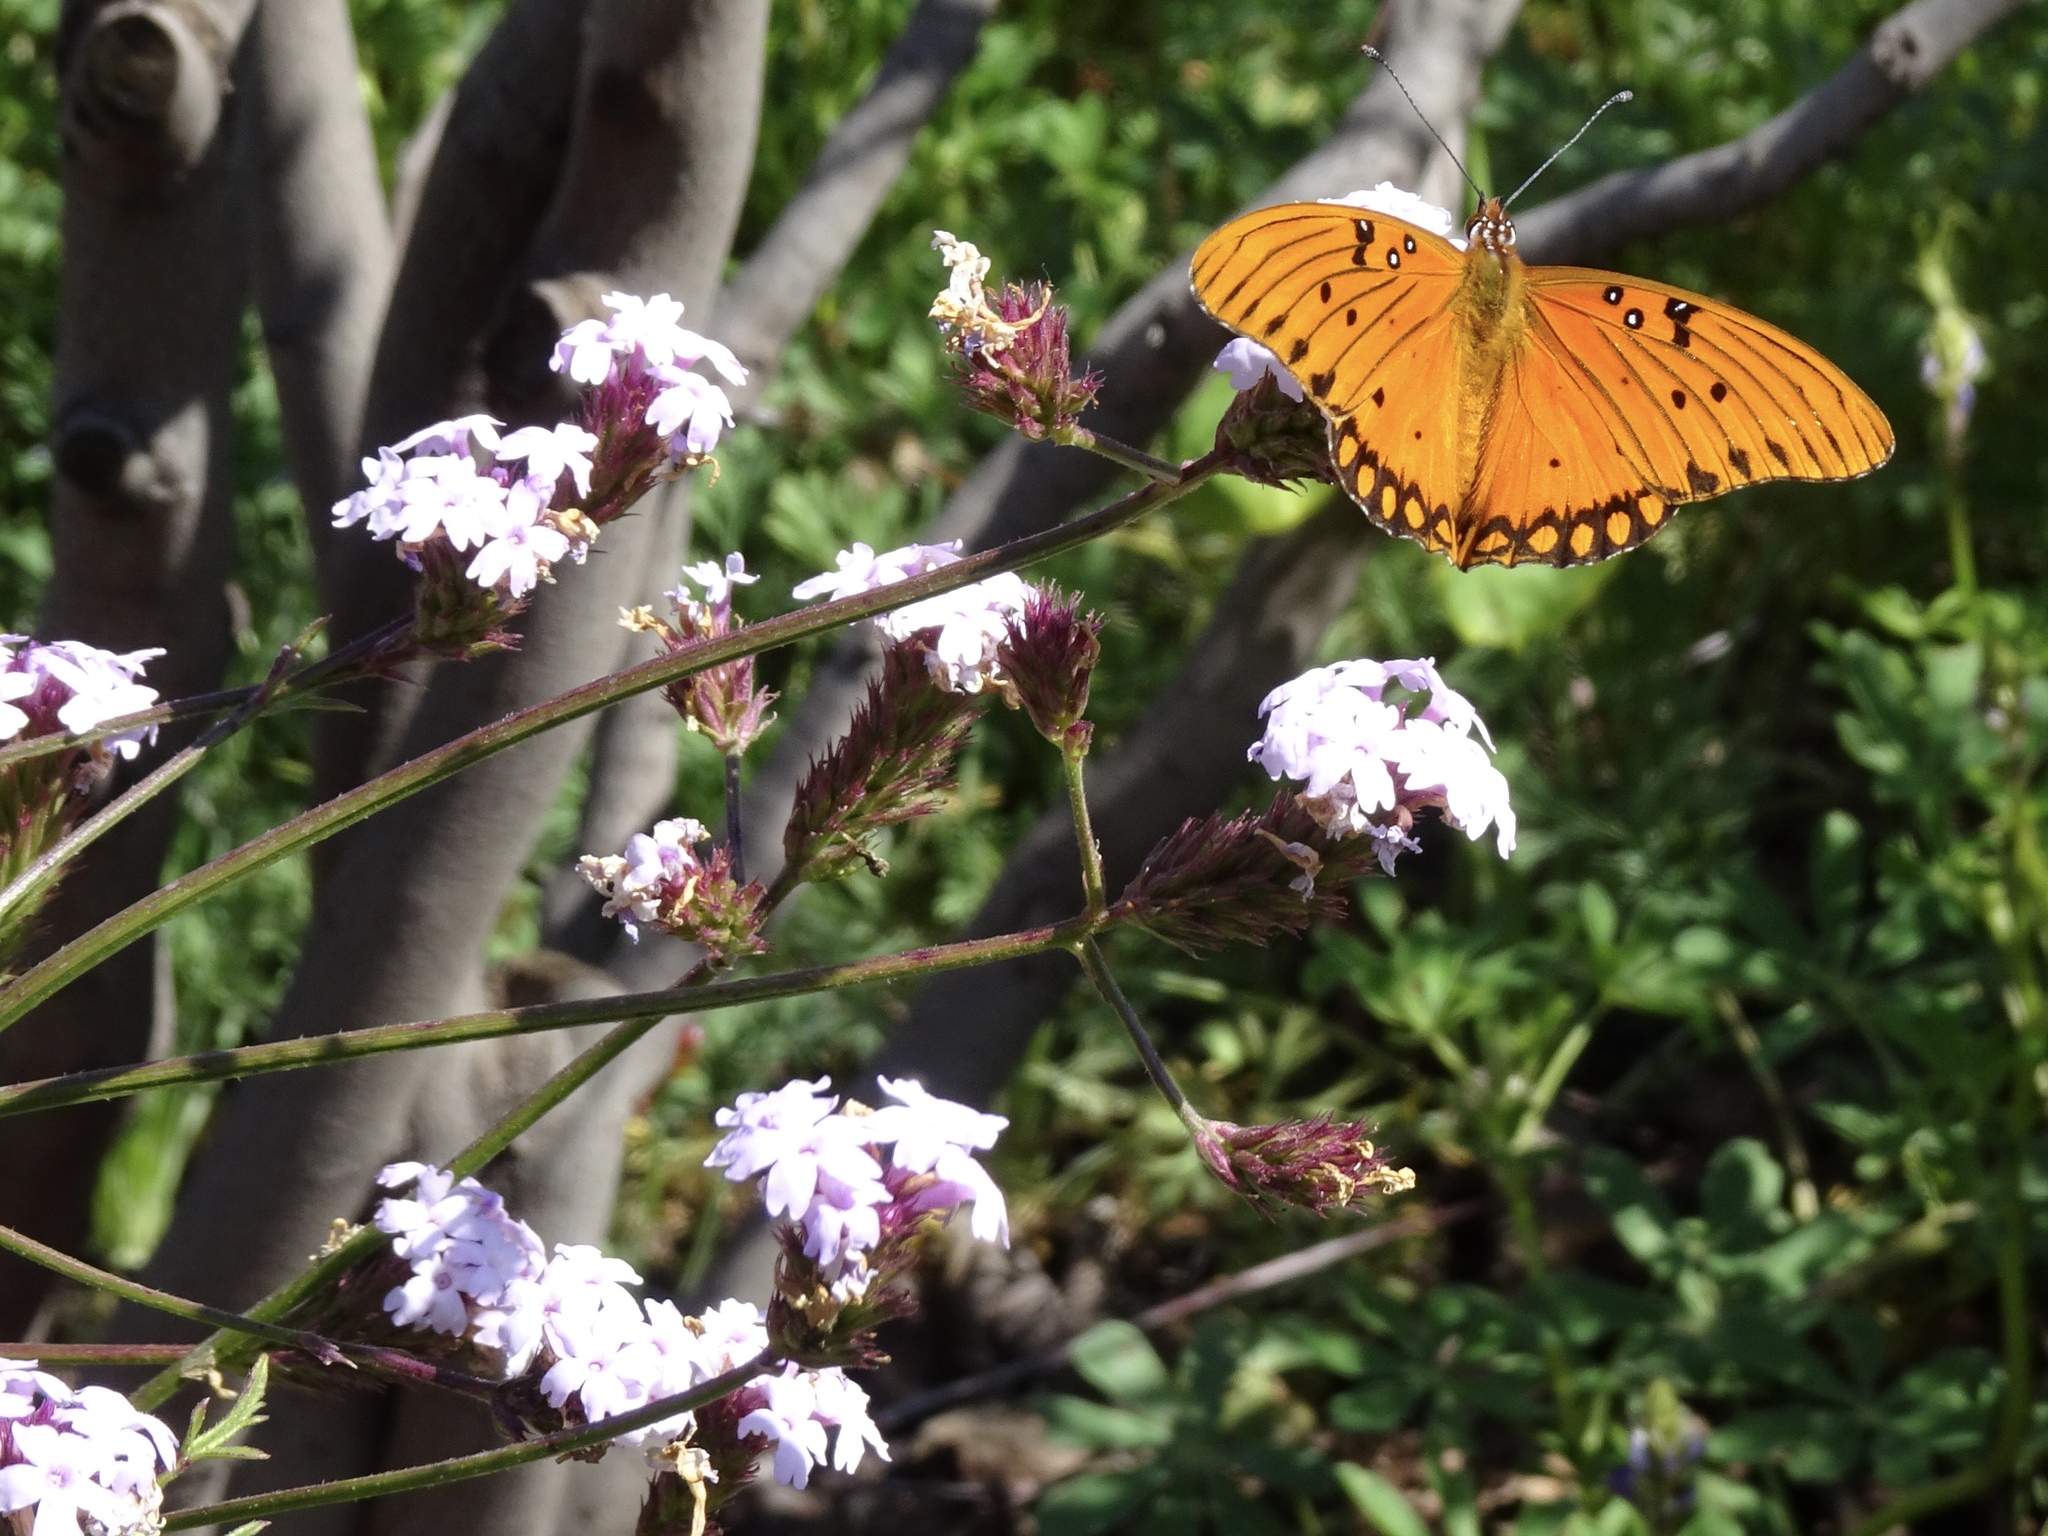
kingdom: Animalia
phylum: Arthropoda
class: Insecta
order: Lepidoptera
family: Nymphalidae
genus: Dione
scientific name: Dione vanillae
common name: Gulf fritillary
